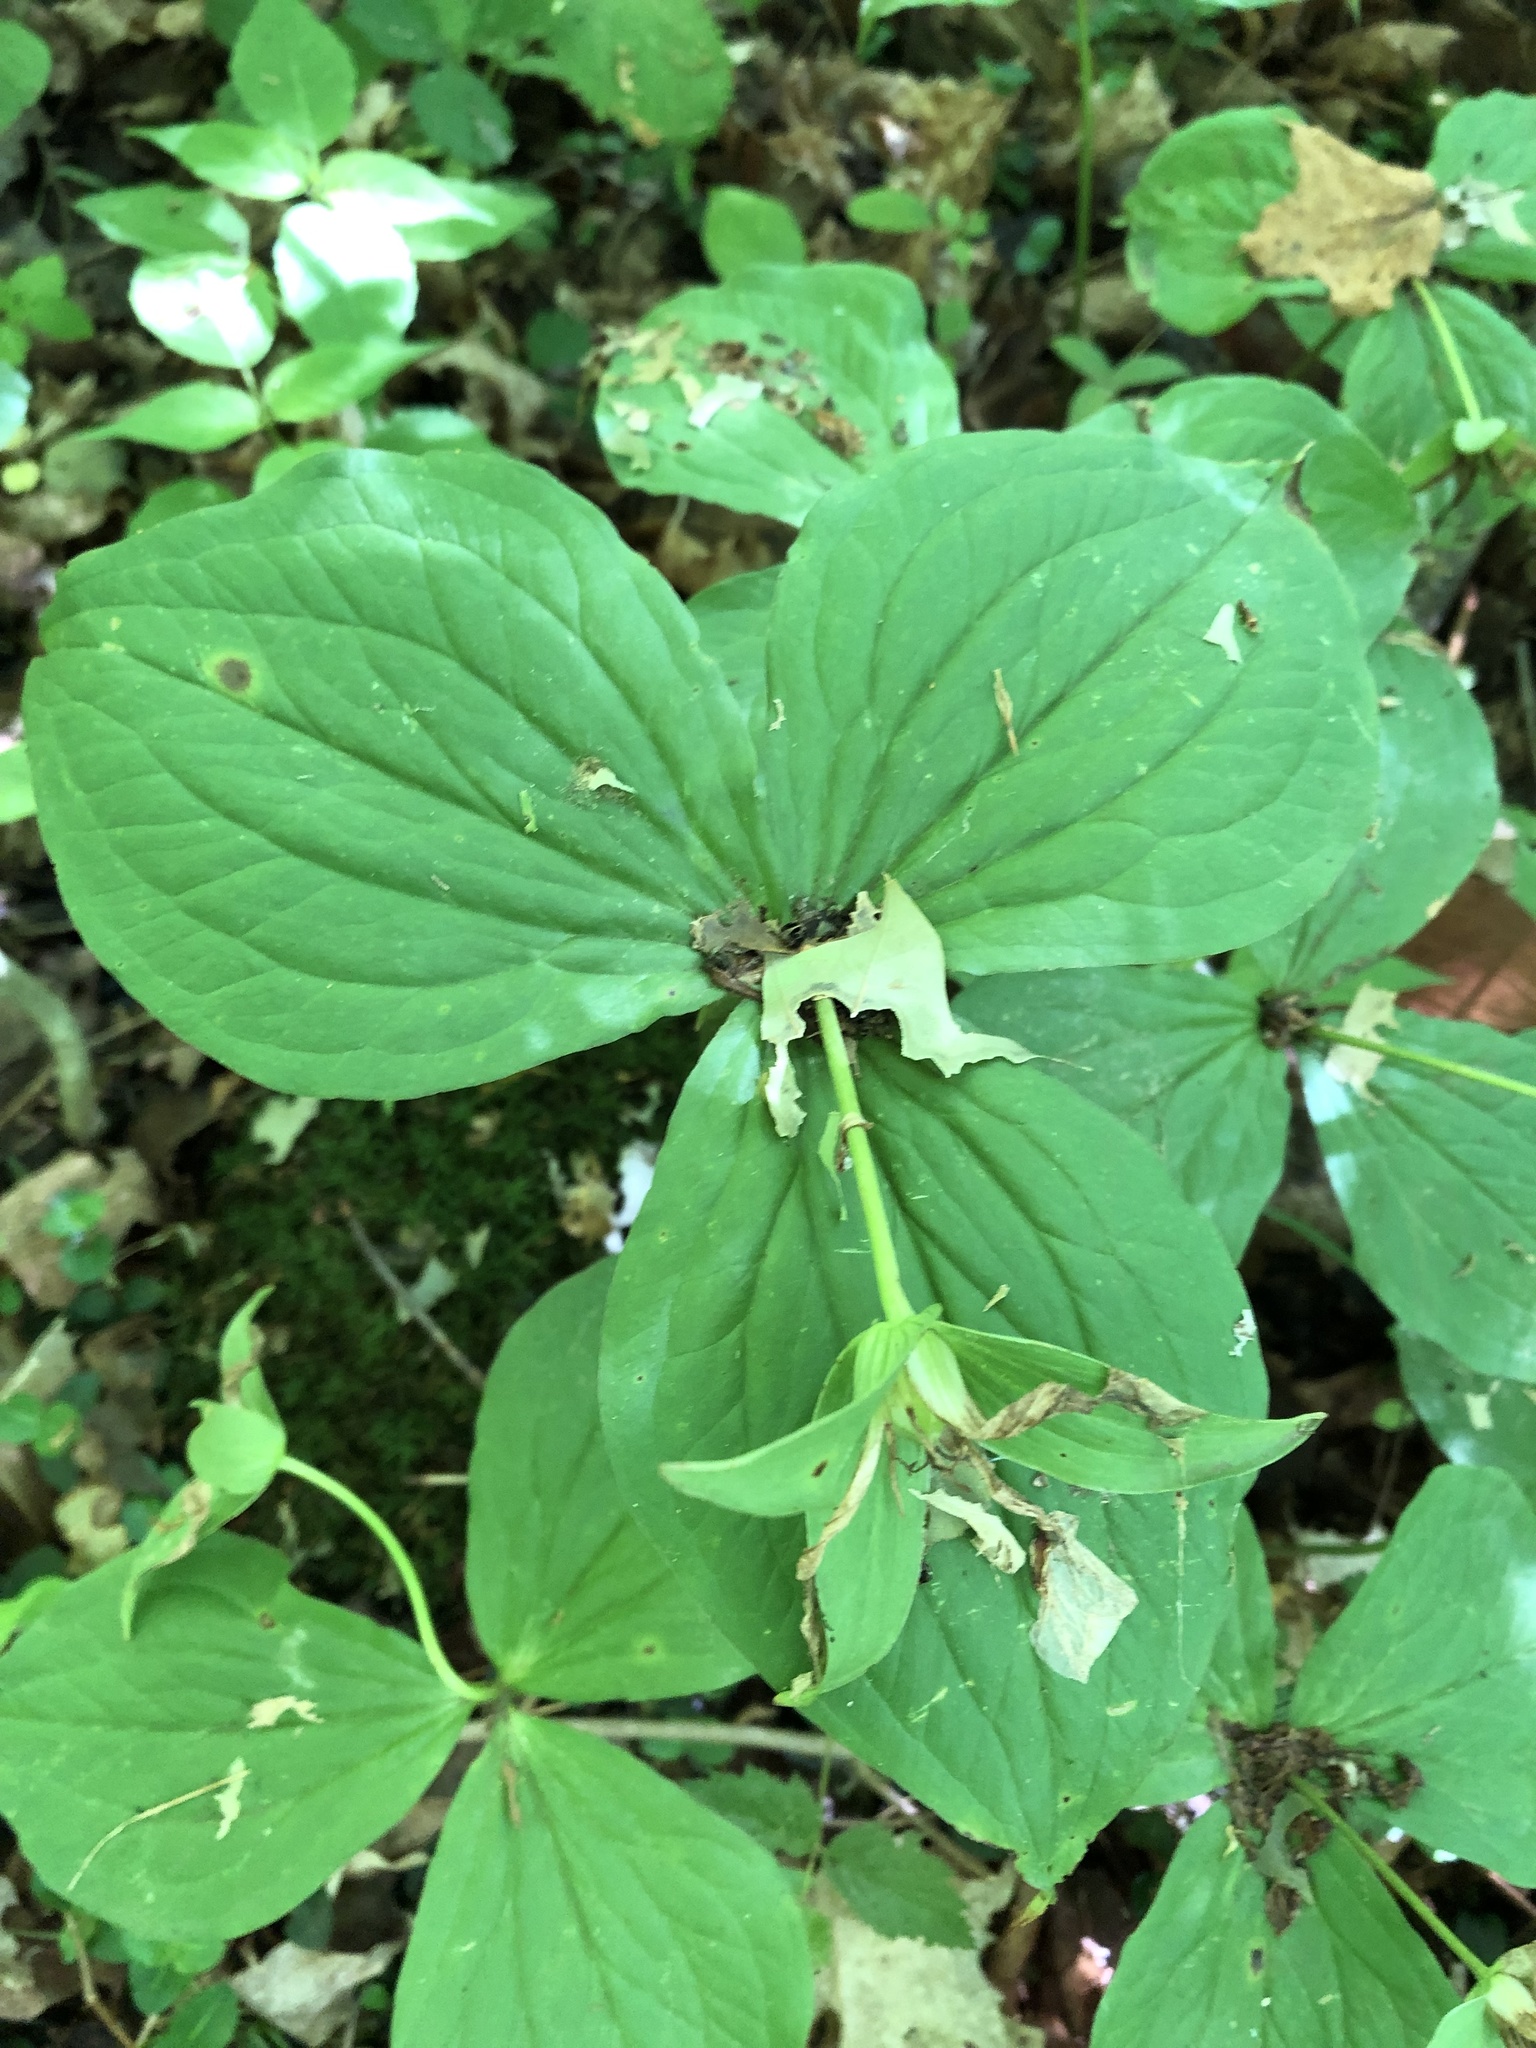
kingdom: Plantae
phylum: Tracheophyta
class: Liliopsida
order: Liliales
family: Melanthiaceae
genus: Trillium
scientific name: Trillium grandiflorum
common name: Great white trillium
